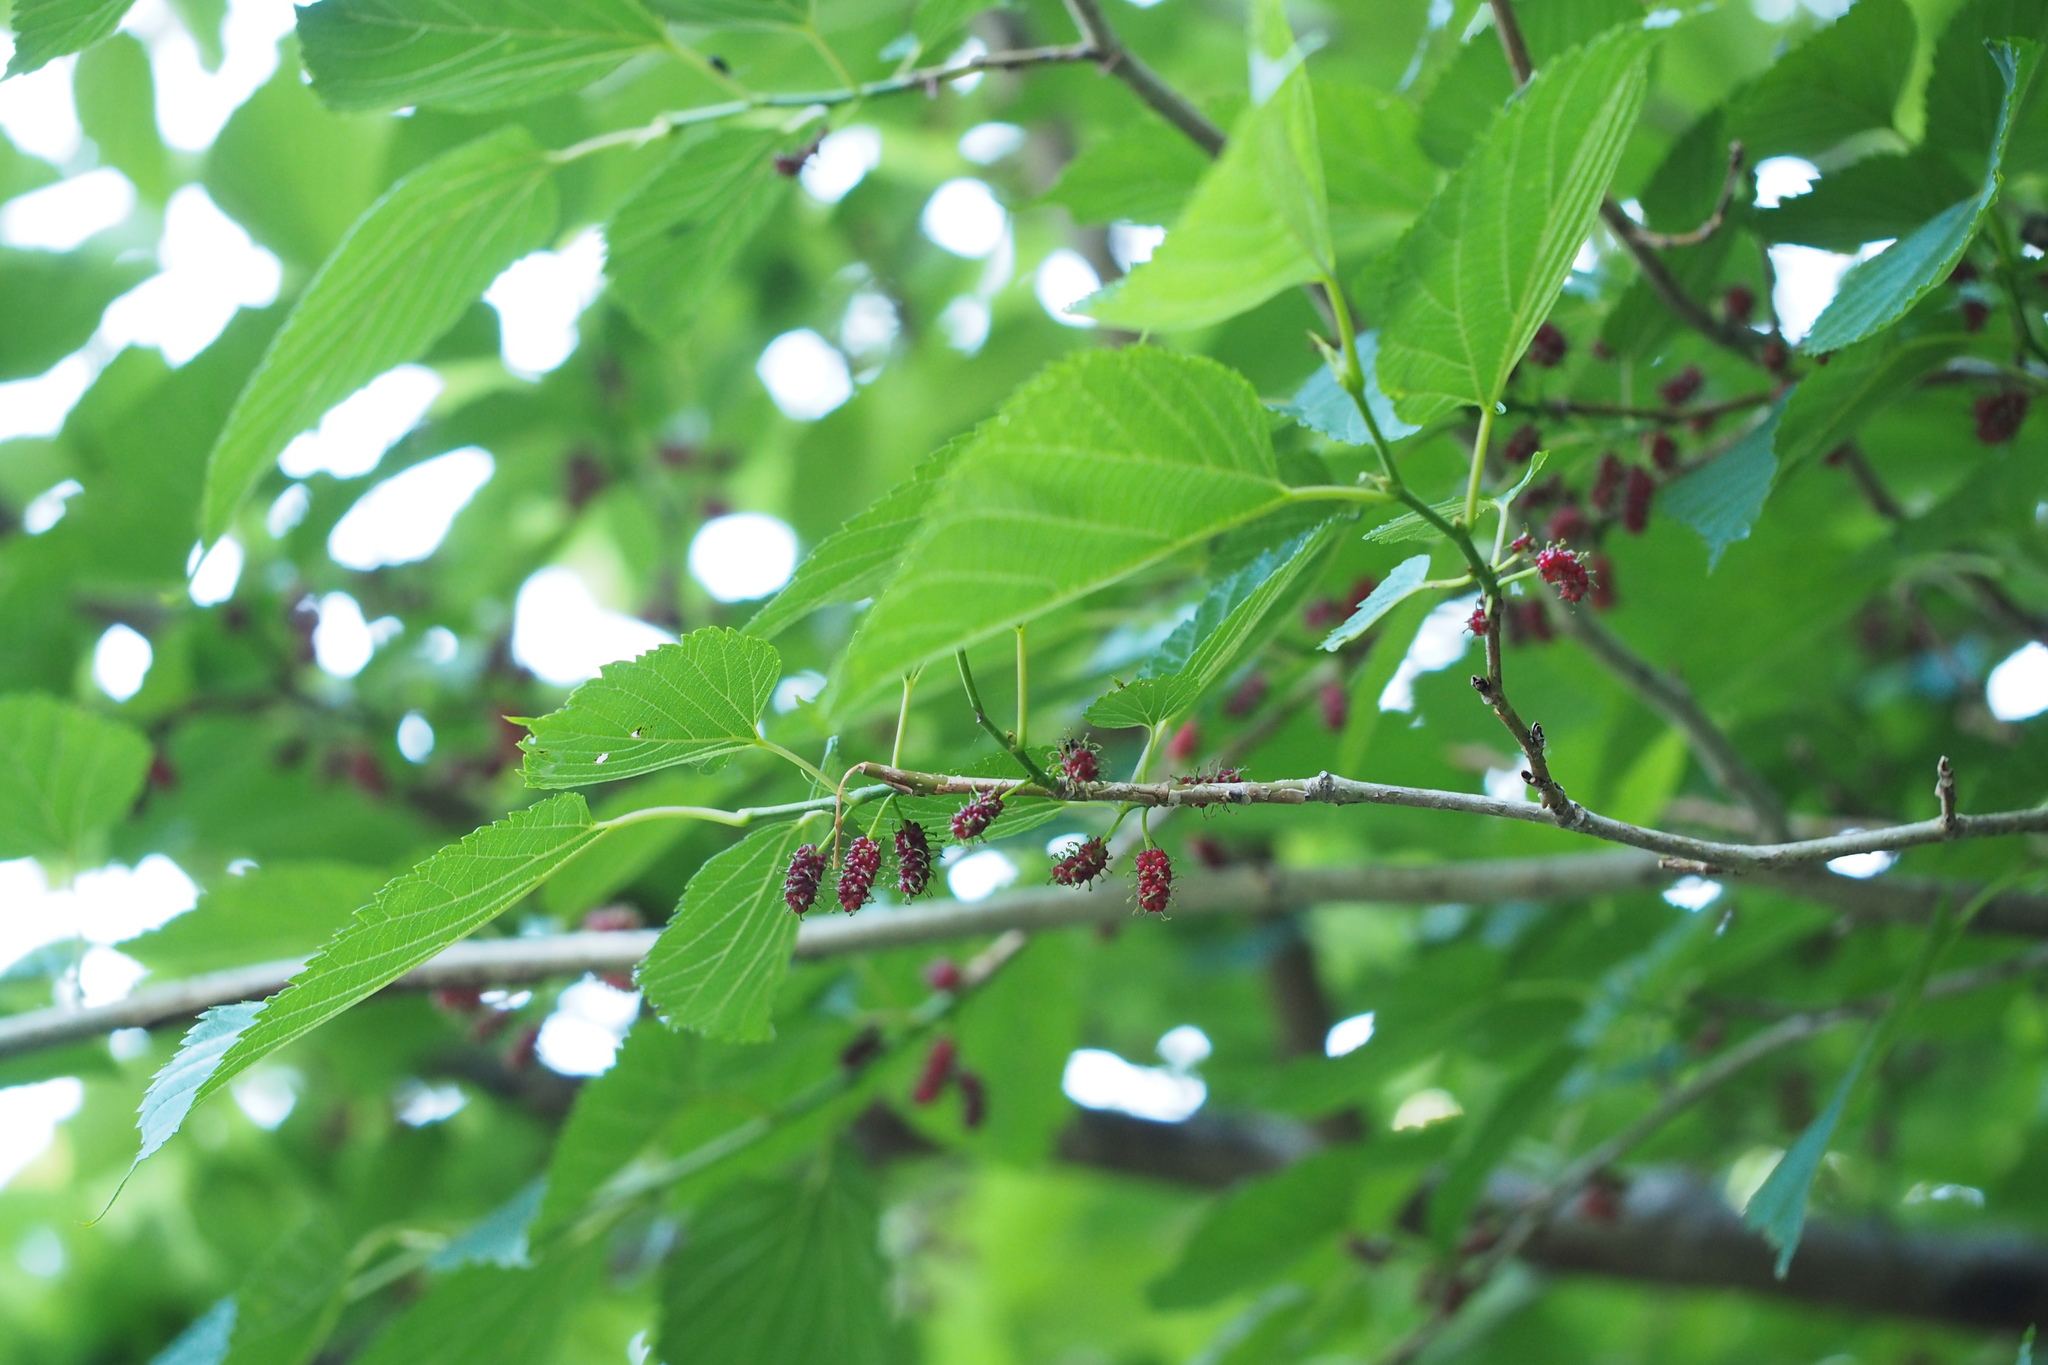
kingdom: Plantae
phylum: Tracheophyta
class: Magnoliopsida
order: Rosales
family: Moraceae
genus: Morus
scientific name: Morus indica
